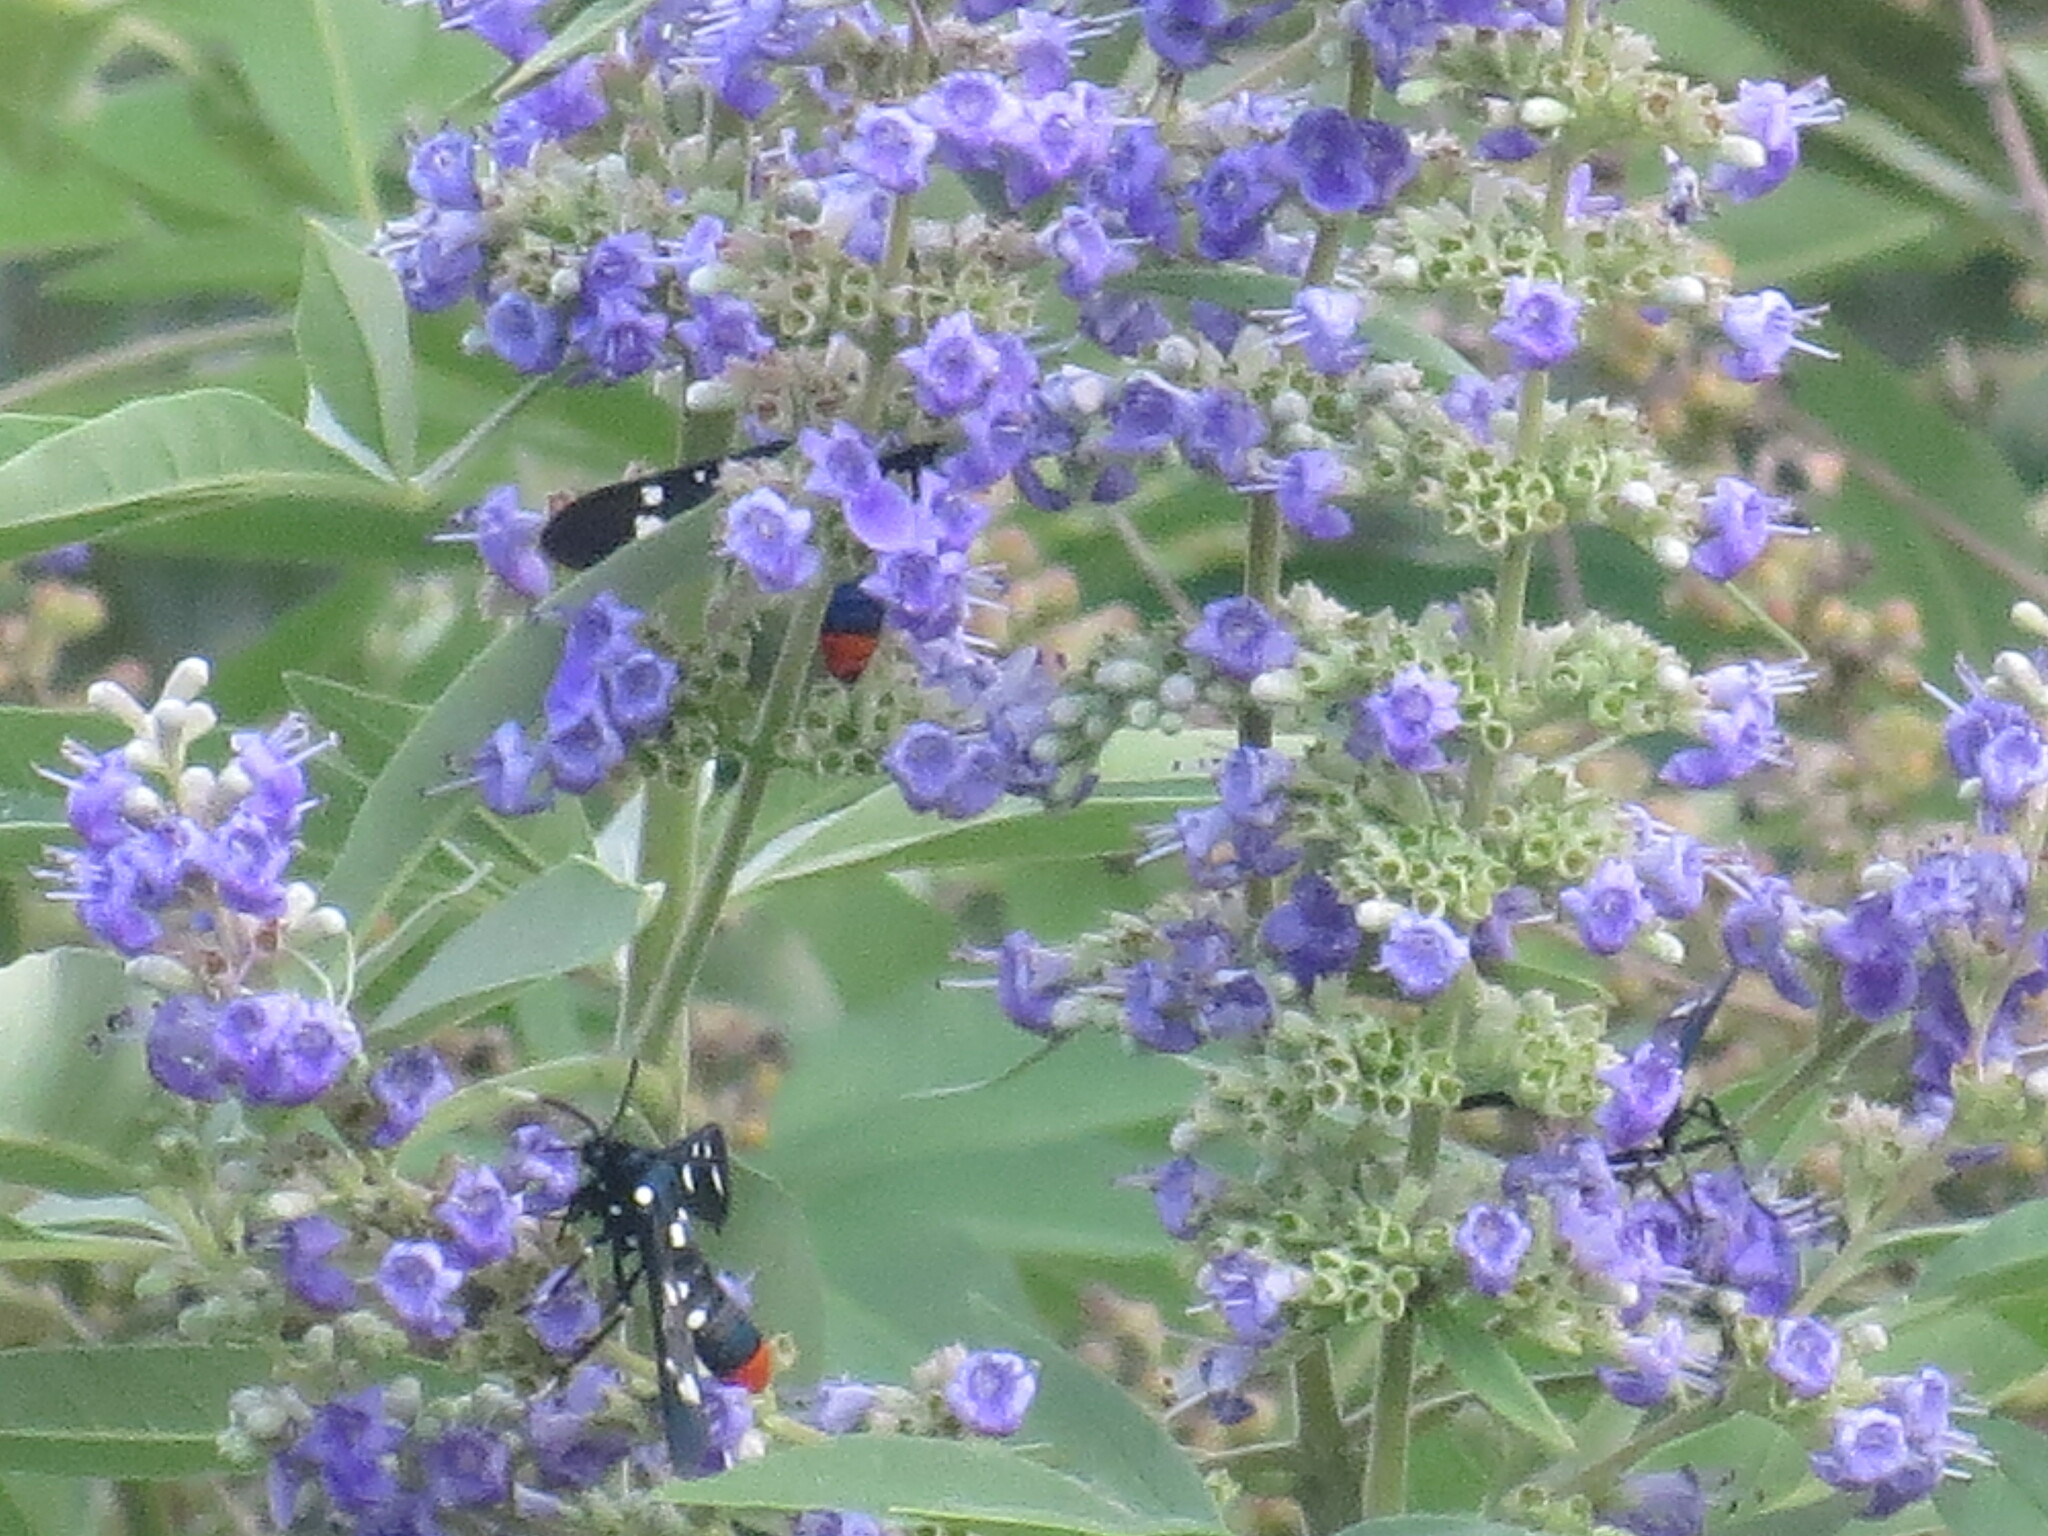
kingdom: Animalia
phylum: Arthropoda
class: Insecta
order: Lepidoptera
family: Erebidae
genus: Syntomeida
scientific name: Syntomeida epilais
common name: Polka-dot wasp moth
